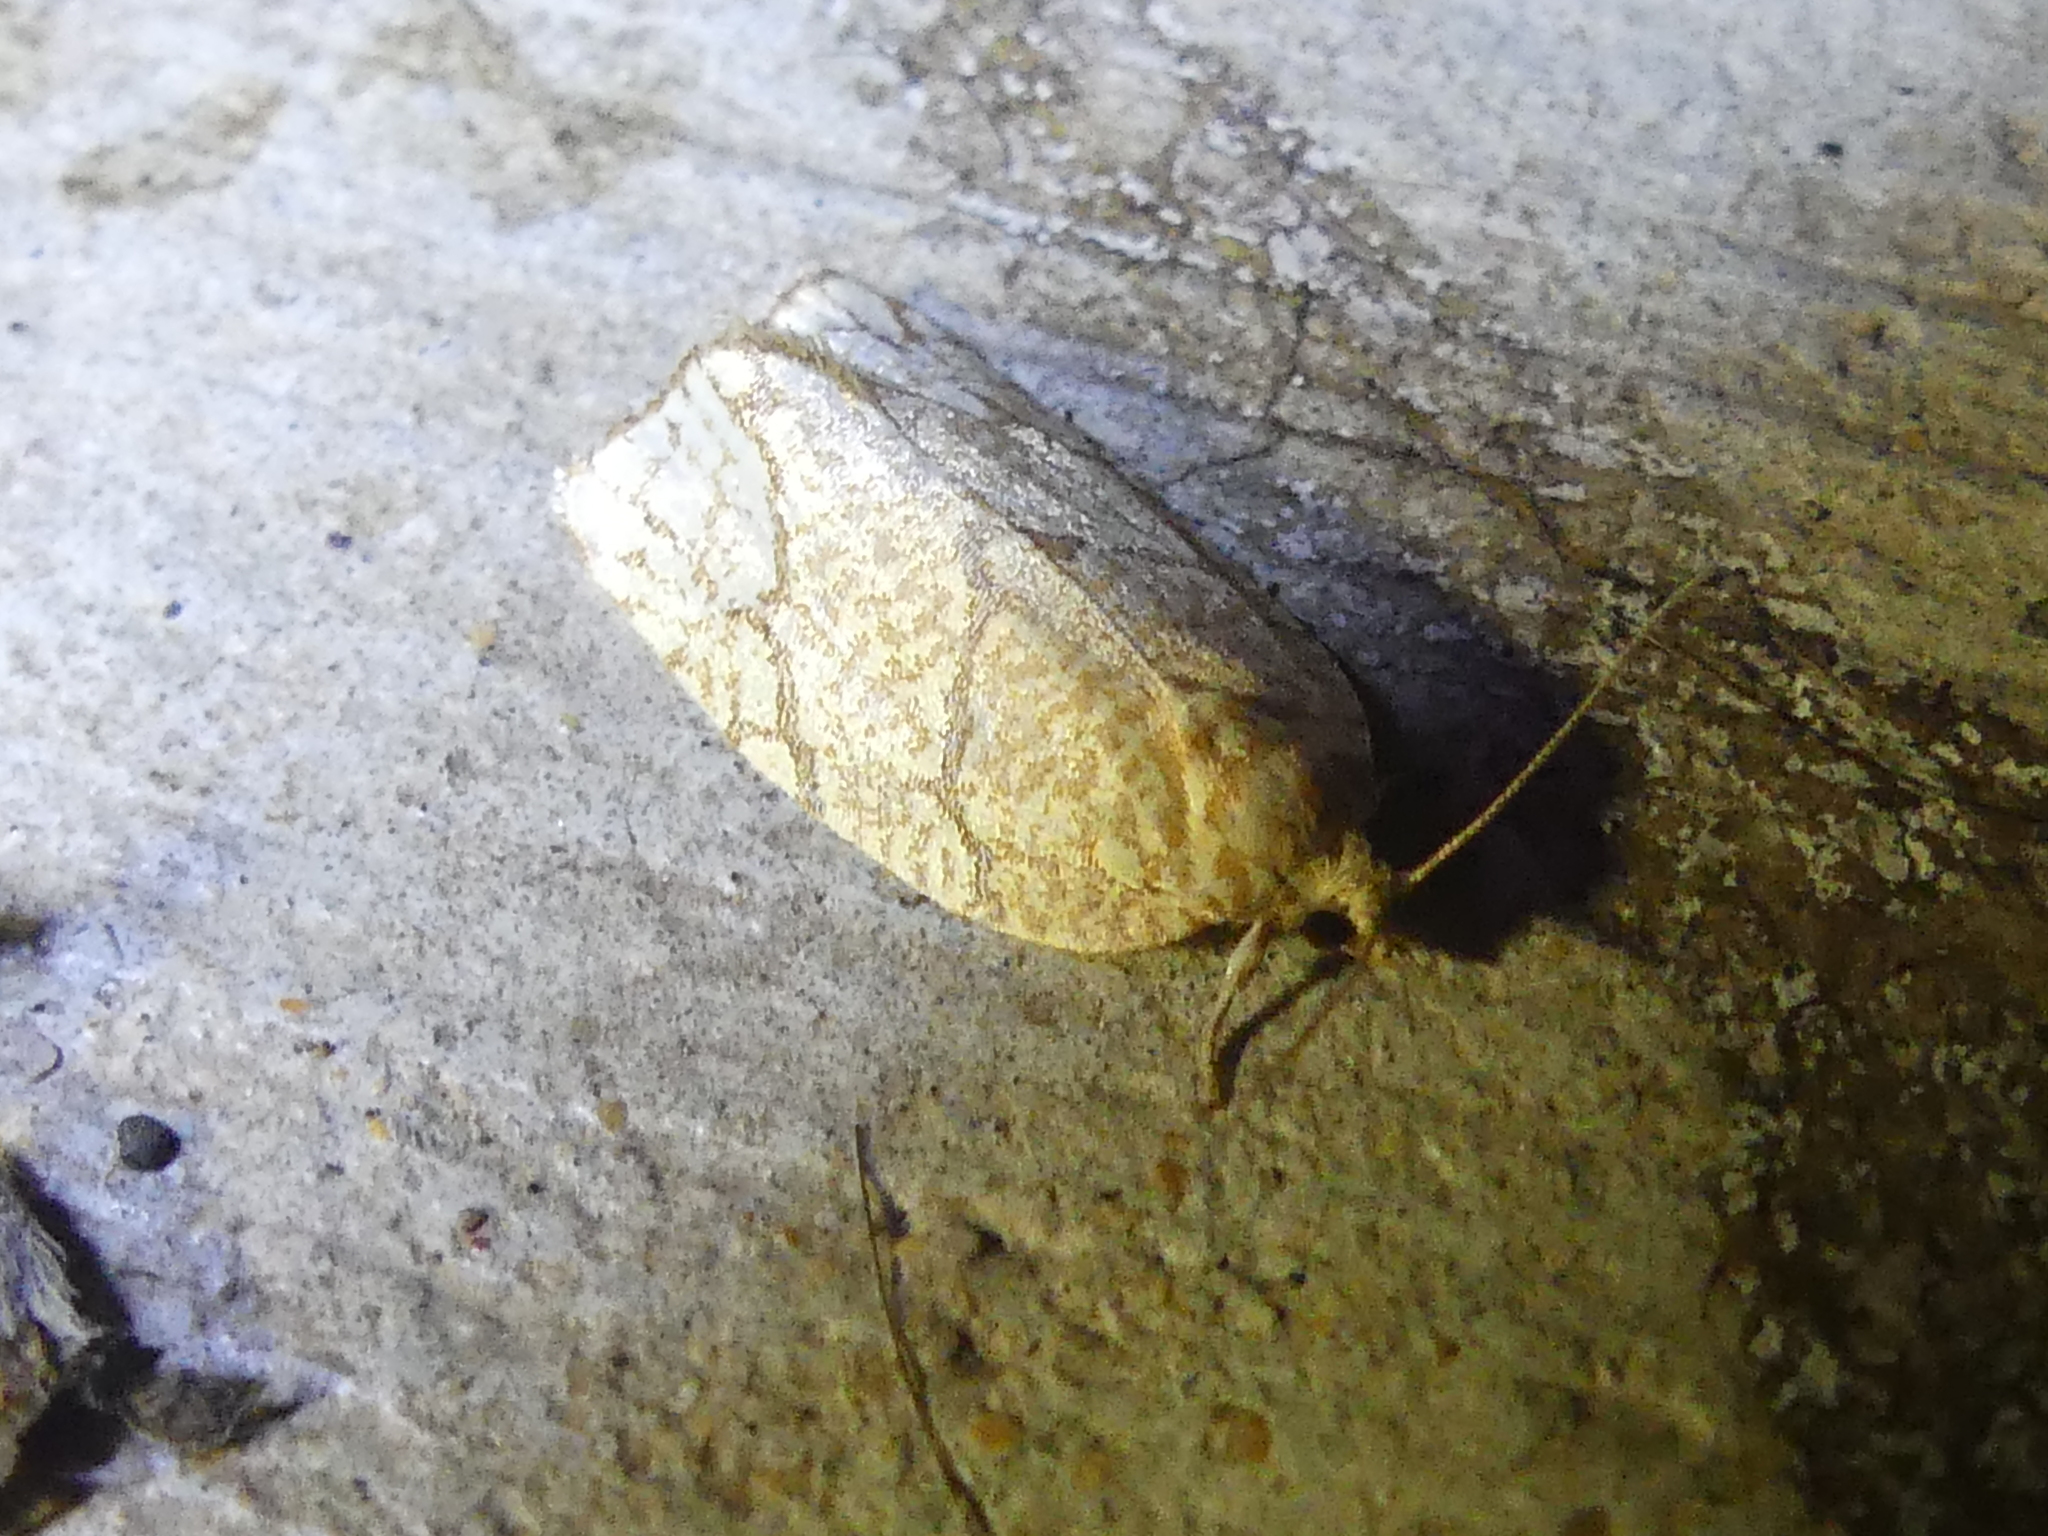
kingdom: Animalia
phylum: Arthropoda
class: Insecta
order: Lepidoptera
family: Tortricidae
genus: Argyrotaenia
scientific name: Argyrotaenia quercifoliana
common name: Yellow-winged oak leafroller moth
